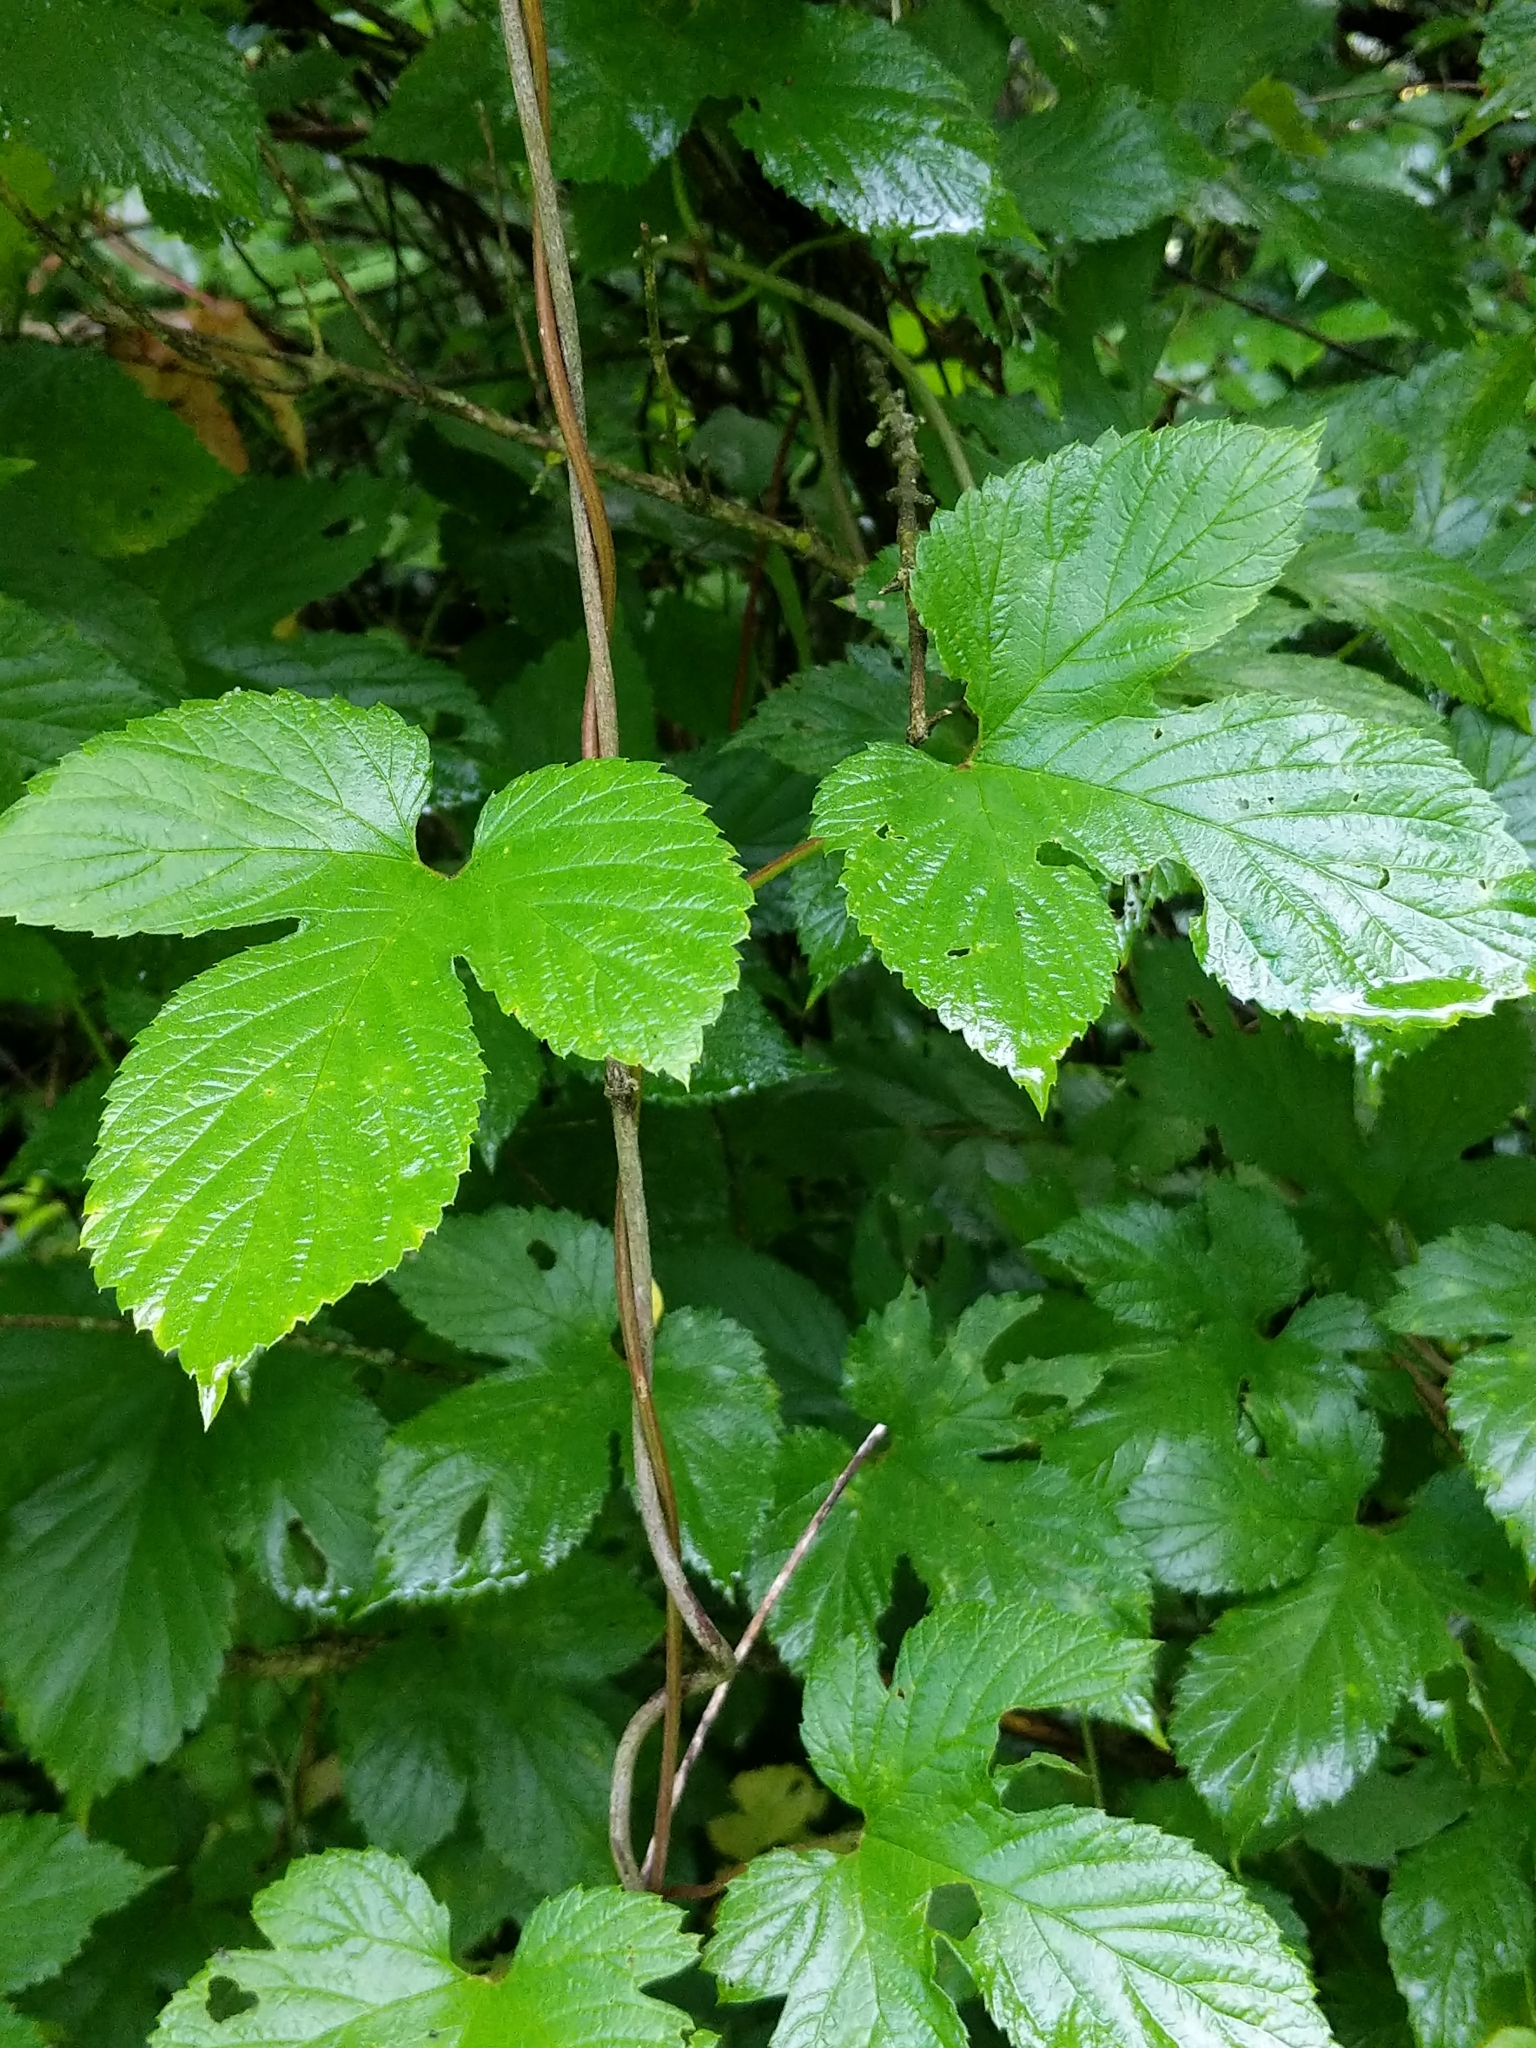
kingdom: Plantae
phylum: Tracheophyta
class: Magnoliopsida
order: Rosales
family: Cannabaceae
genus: Humulus
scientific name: Humulus lupulus
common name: Hop
